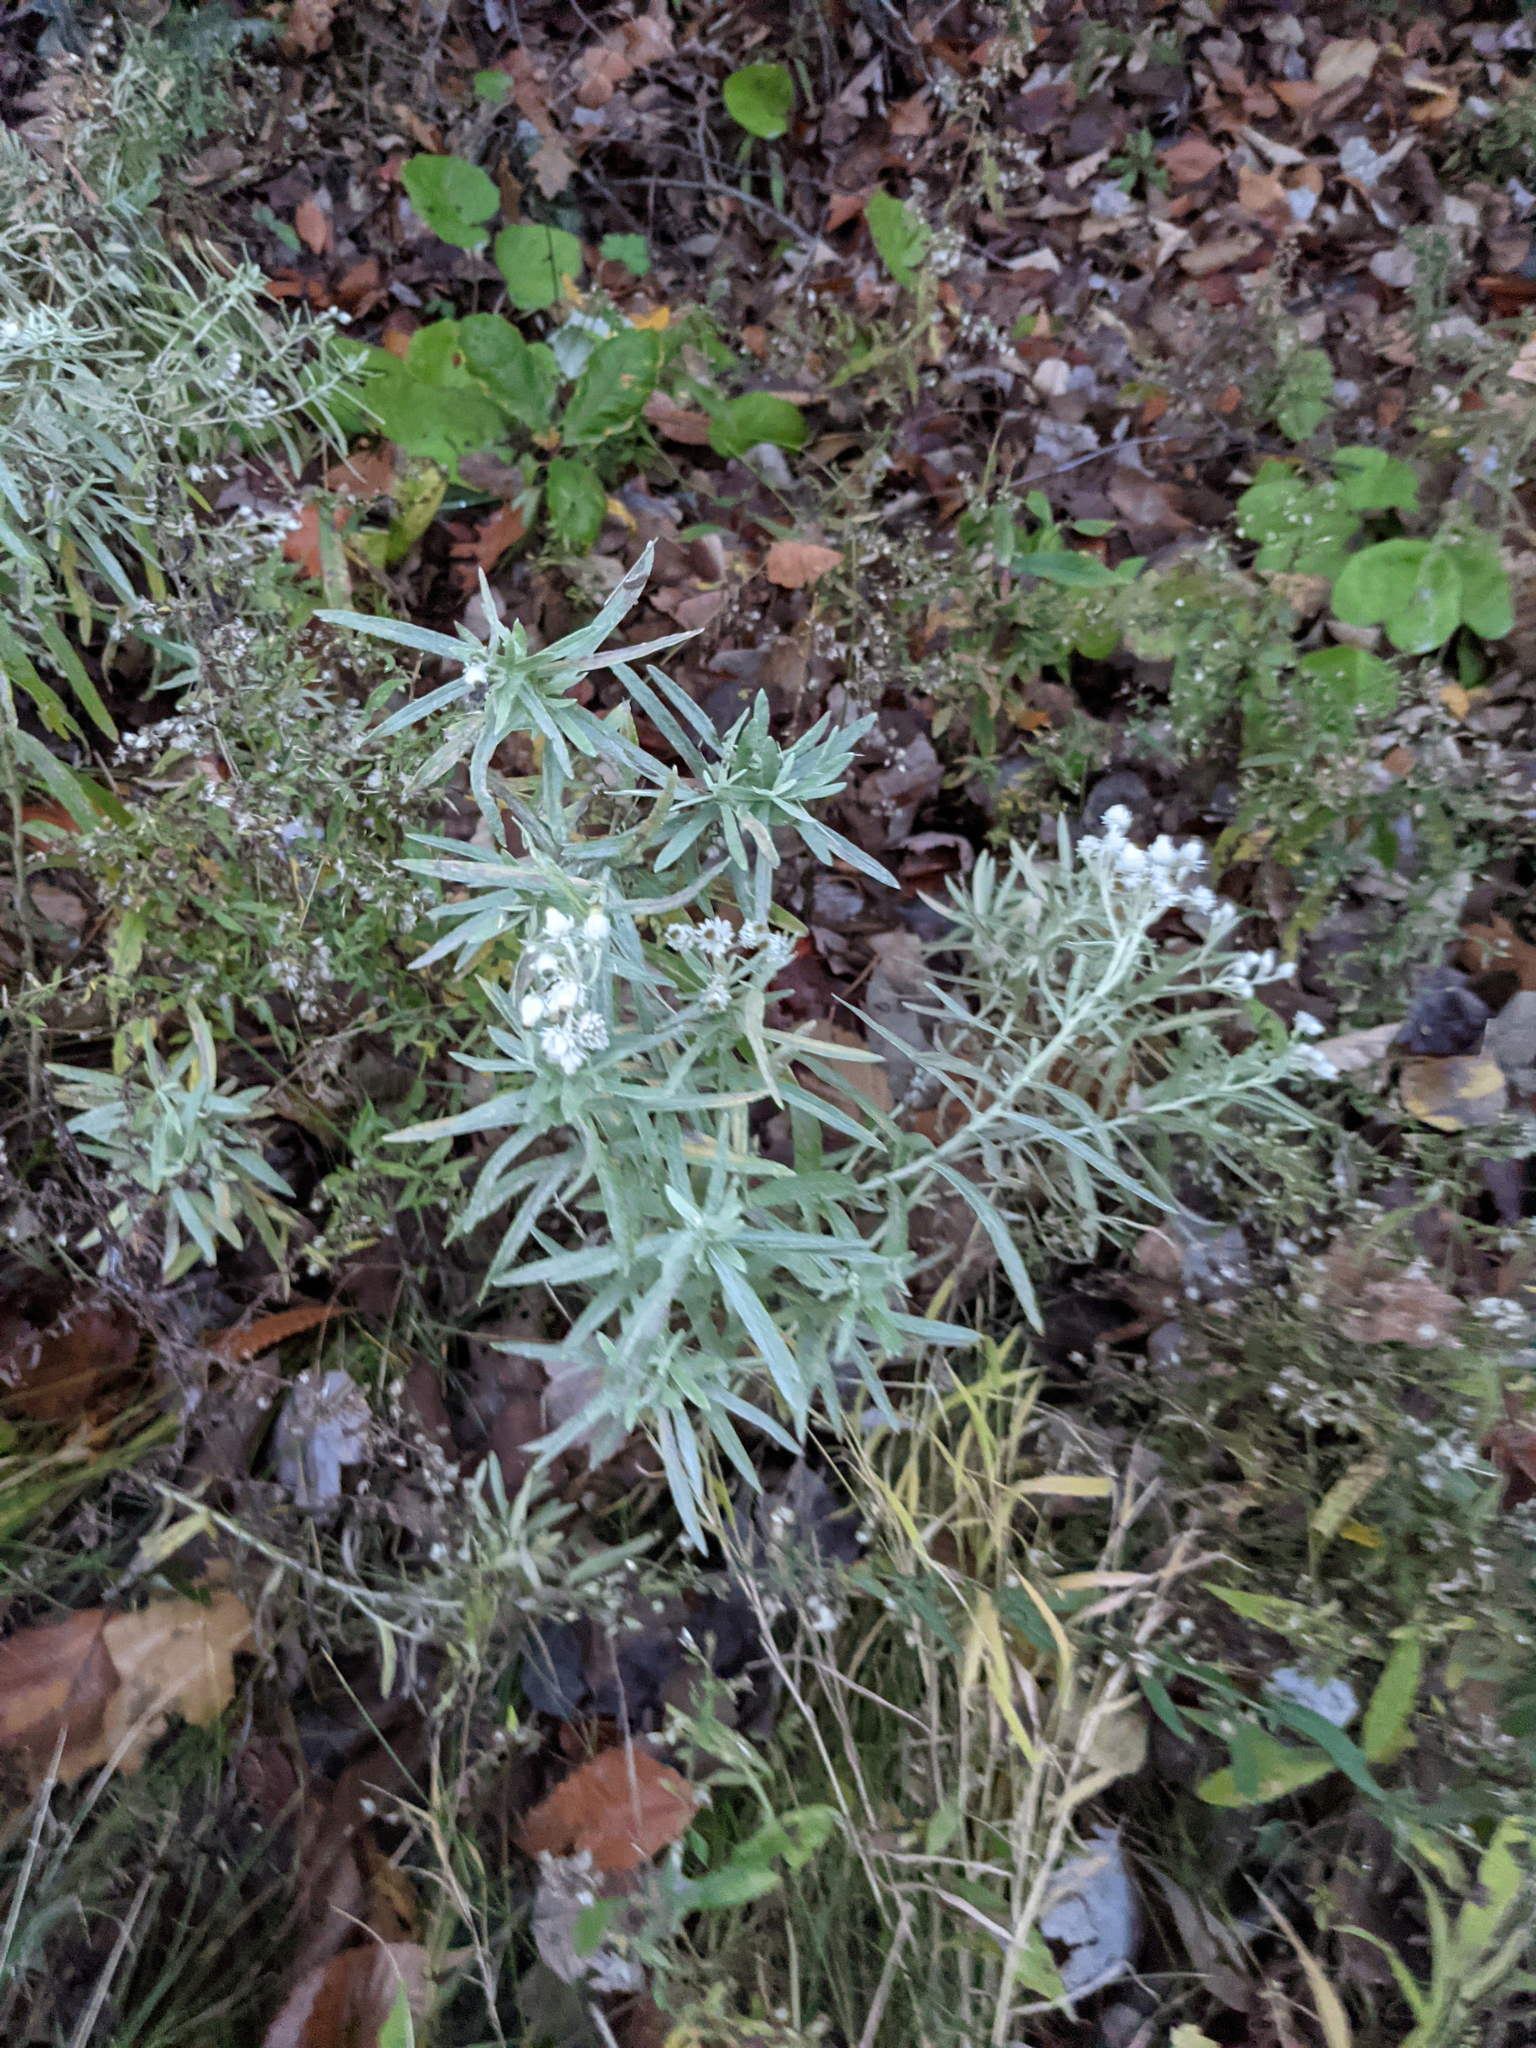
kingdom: Plantae
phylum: Tracheophyta
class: Magnoliopsida
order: Asterales
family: Asteraceae
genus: Anaphalis
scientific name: Anaphalis margaritacea
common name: Pearly everlasting
